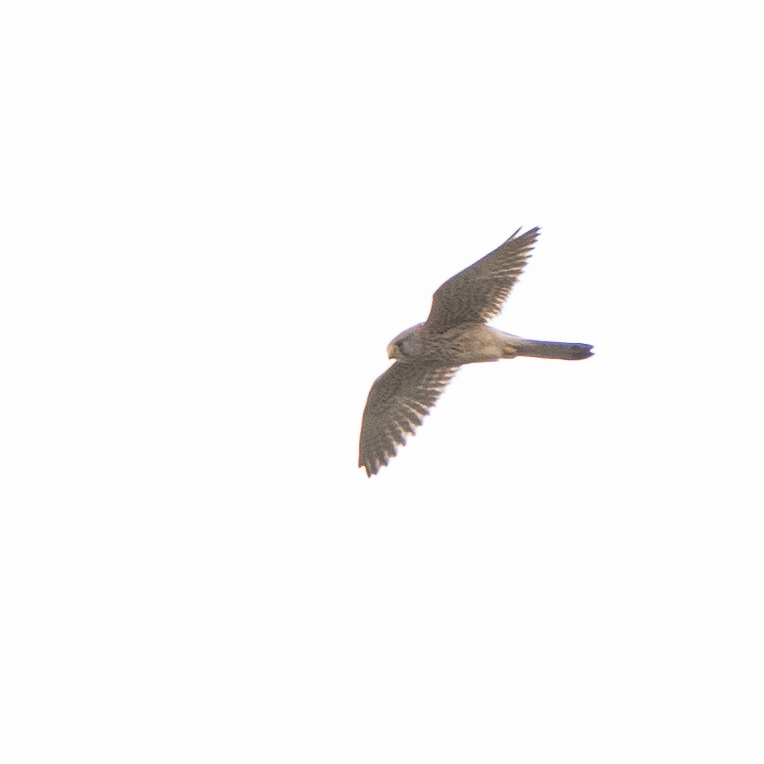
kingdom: Animalia
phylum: Chordata
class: Aves
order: Falconiformes
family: Falconidae
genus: Falco
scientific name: Falco tinnunculus
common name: Common kestrel
